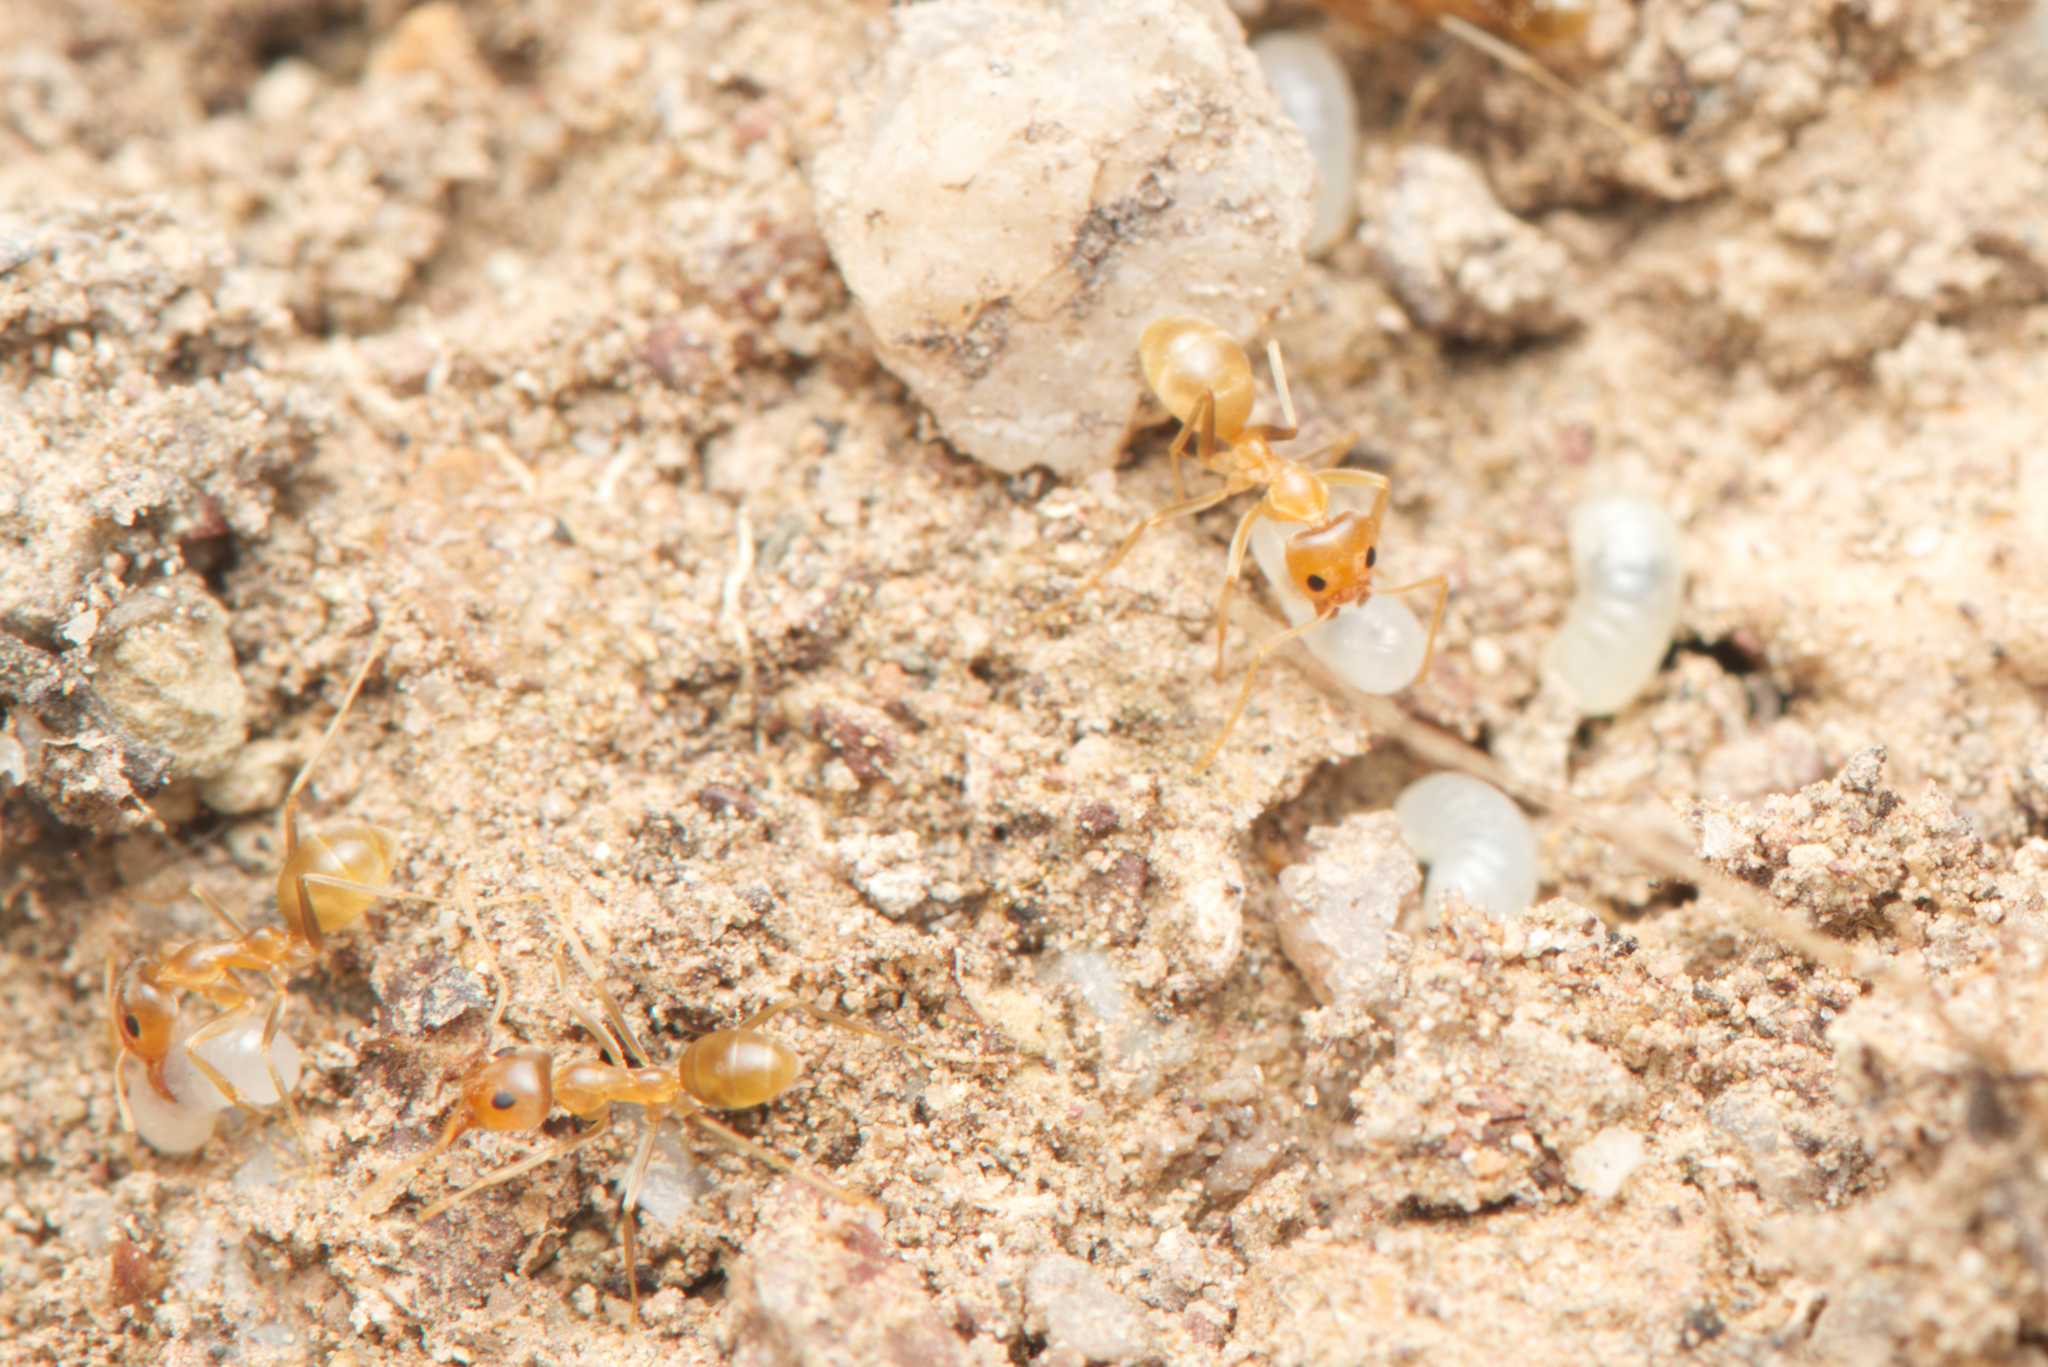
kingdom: Animalia
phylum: Arthropoda
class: Insecta
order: Hymenoptera
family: Formicidae
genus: Iridomyrmex
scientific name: Iridomyrmex pallidus
